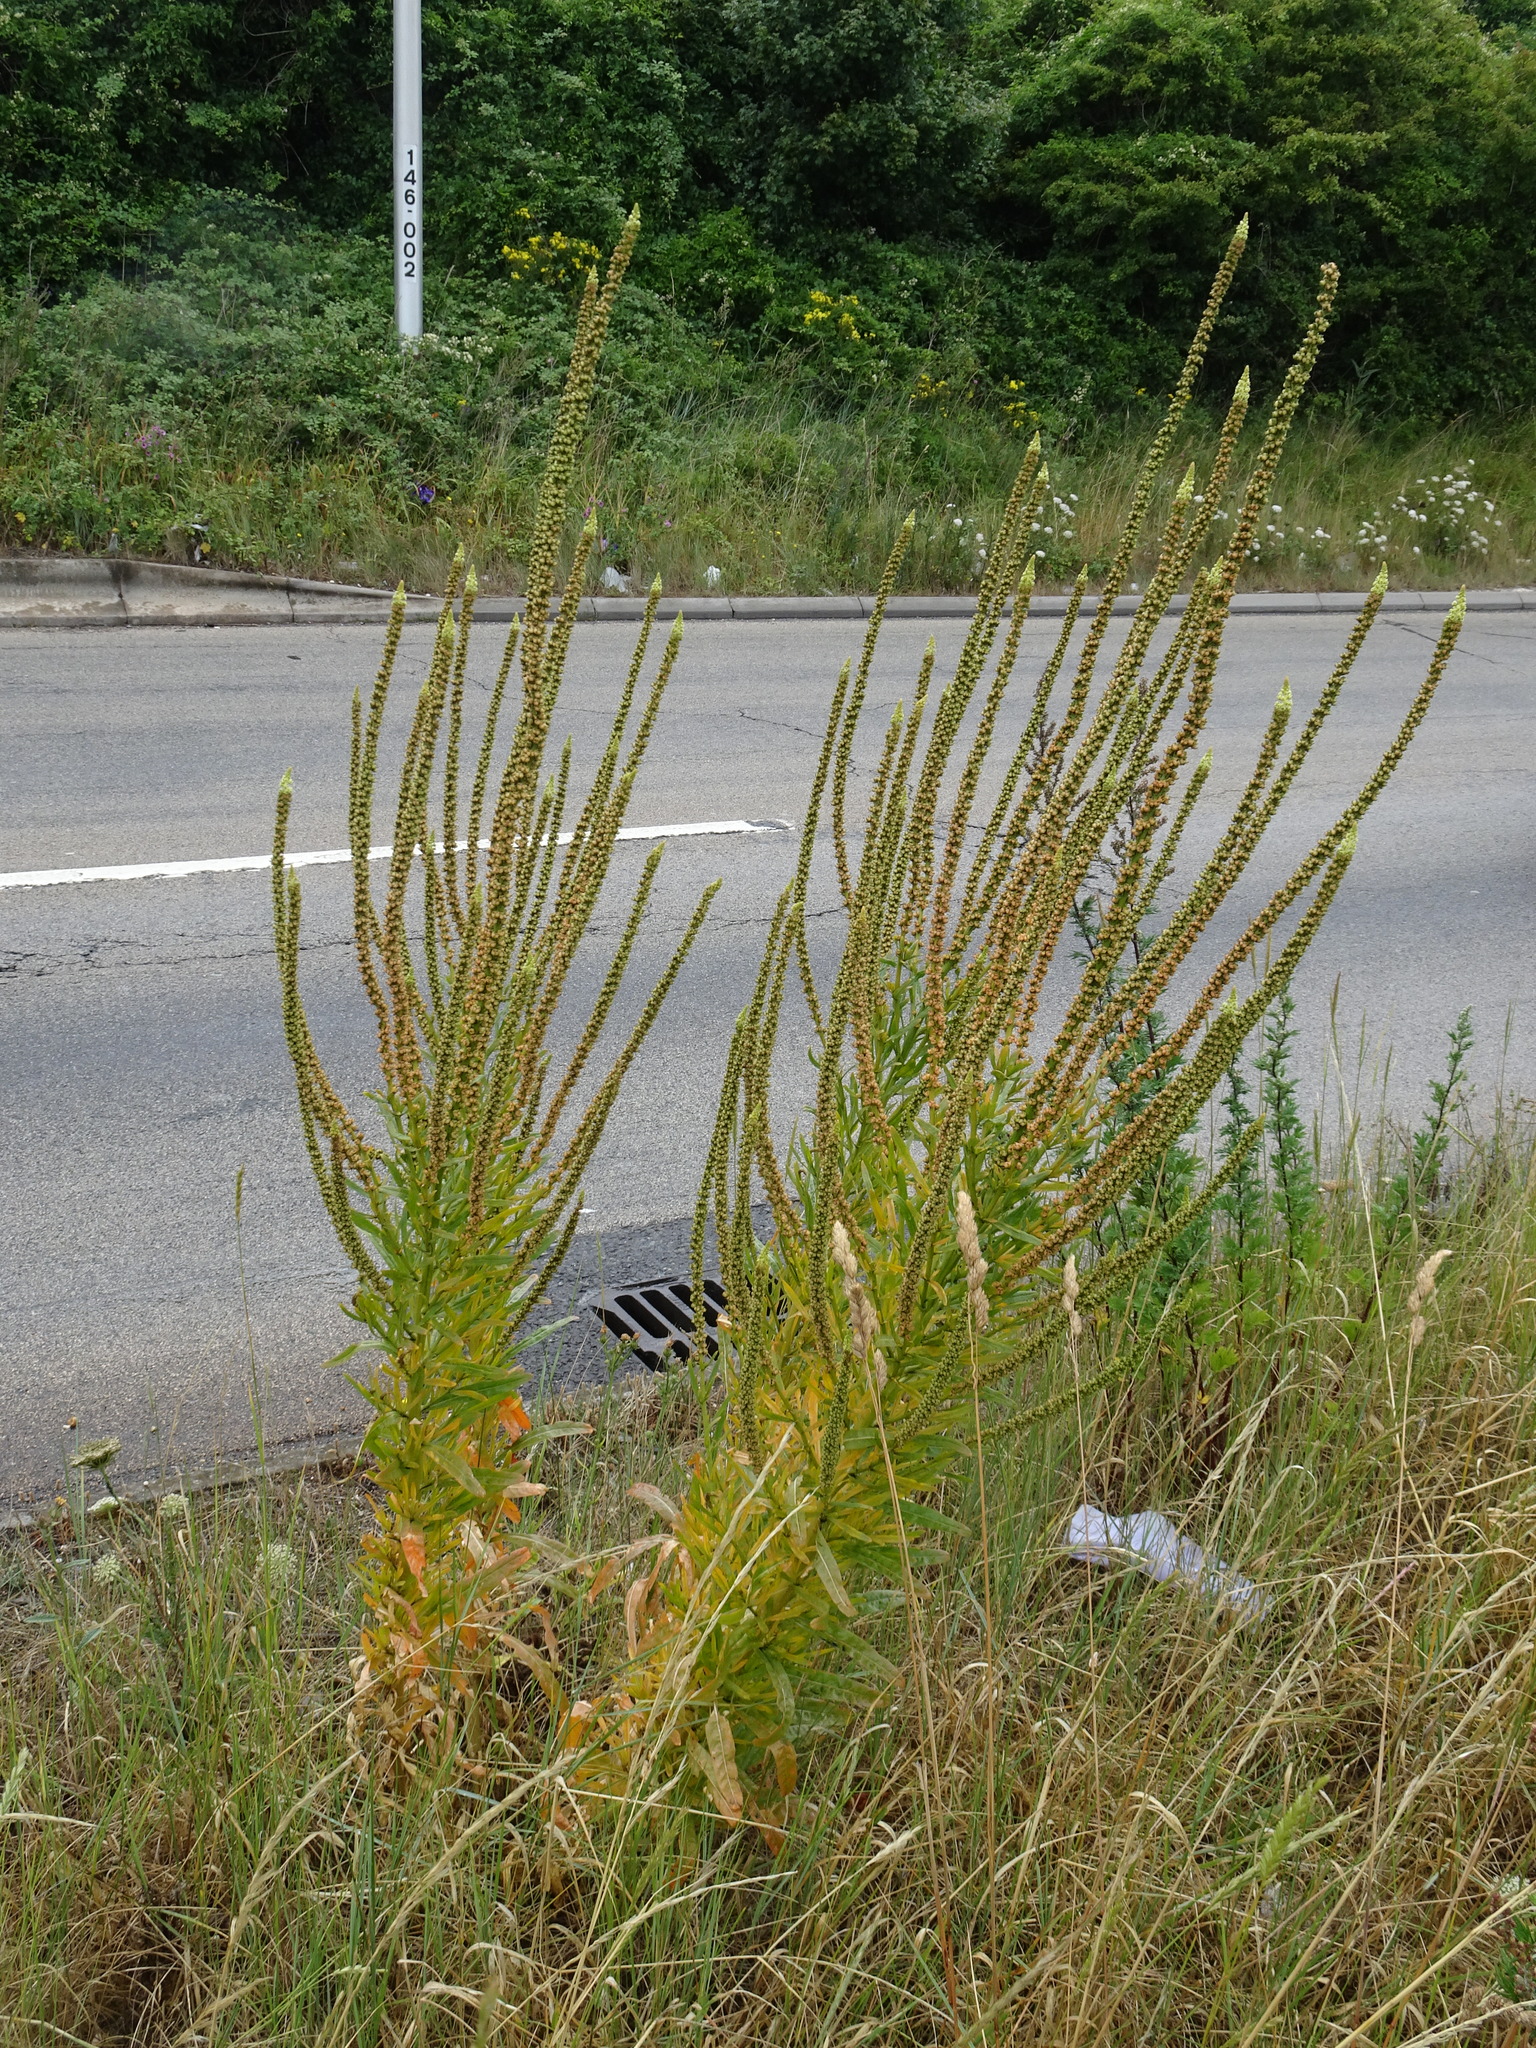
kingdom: Plantae
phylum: Tracheophyta
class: Magnoliopsida
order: Brassicales
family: Resedaceae
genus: Reseda
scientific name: Reseda luteola
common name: Weld
